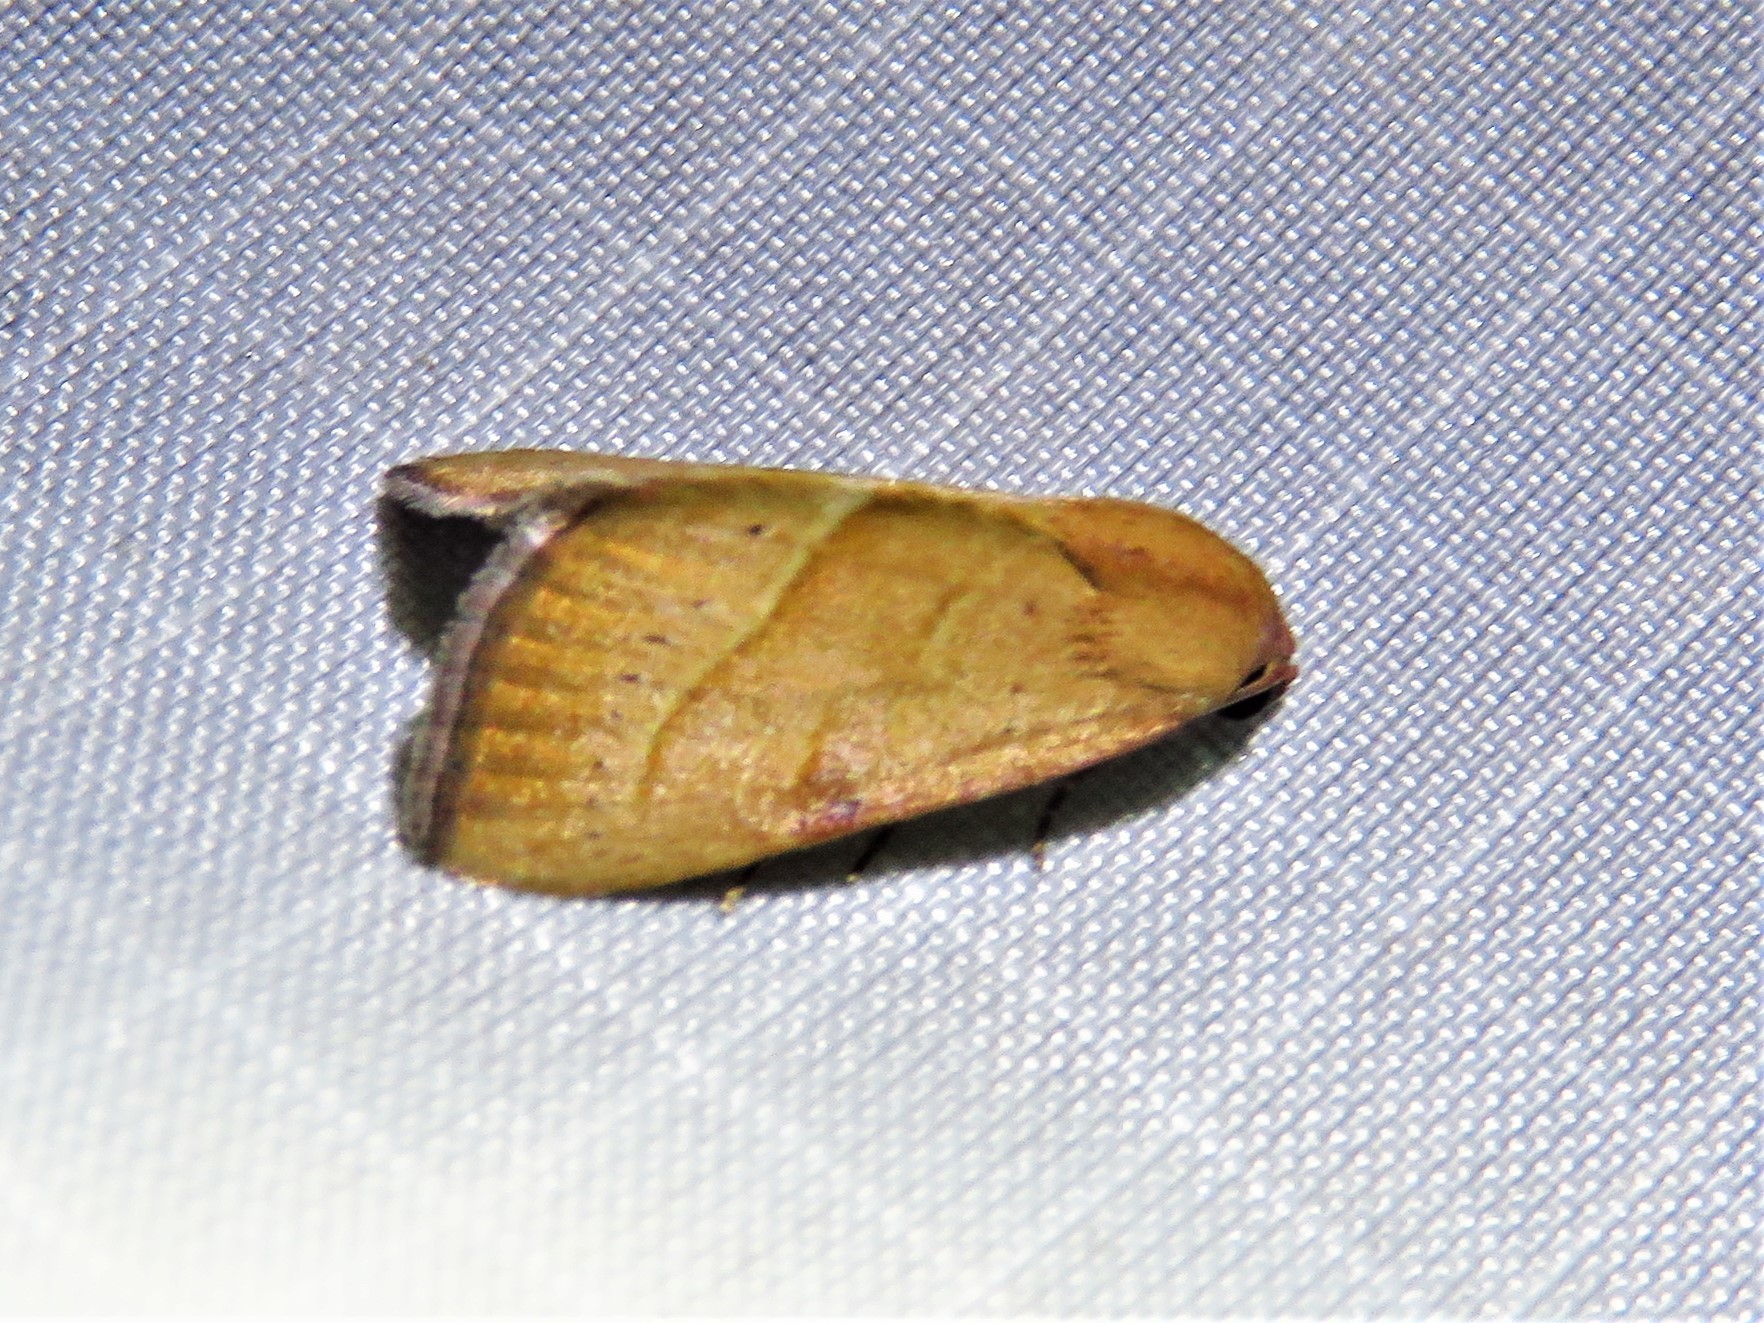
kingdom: Animalia
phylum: Arthropoda
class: Insecta
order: Lepidoptera
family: Noctuidae
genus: Galgula
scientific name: Galgula partita
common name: Wedgeling
